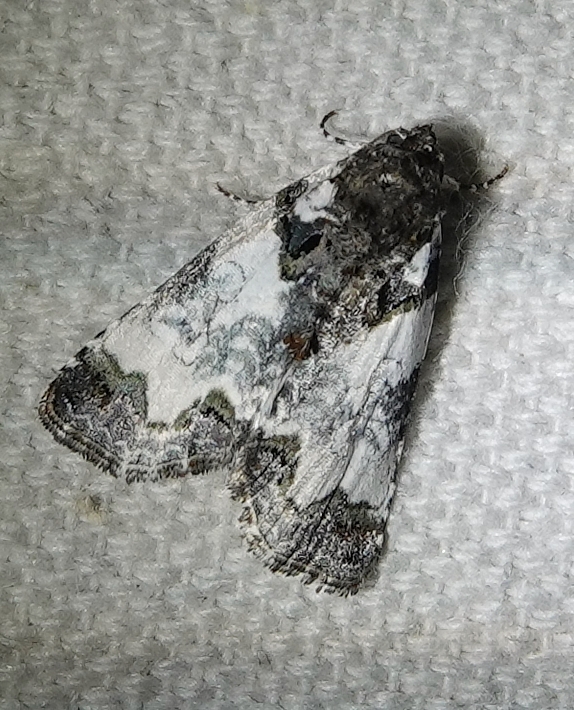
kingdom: Animalia
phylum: Arthropoda
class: Insecta
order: Lepidoptera
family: Noctuidae
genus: Cerma
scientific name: Cerma cerintha
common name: Tufted bird-dropping moth
